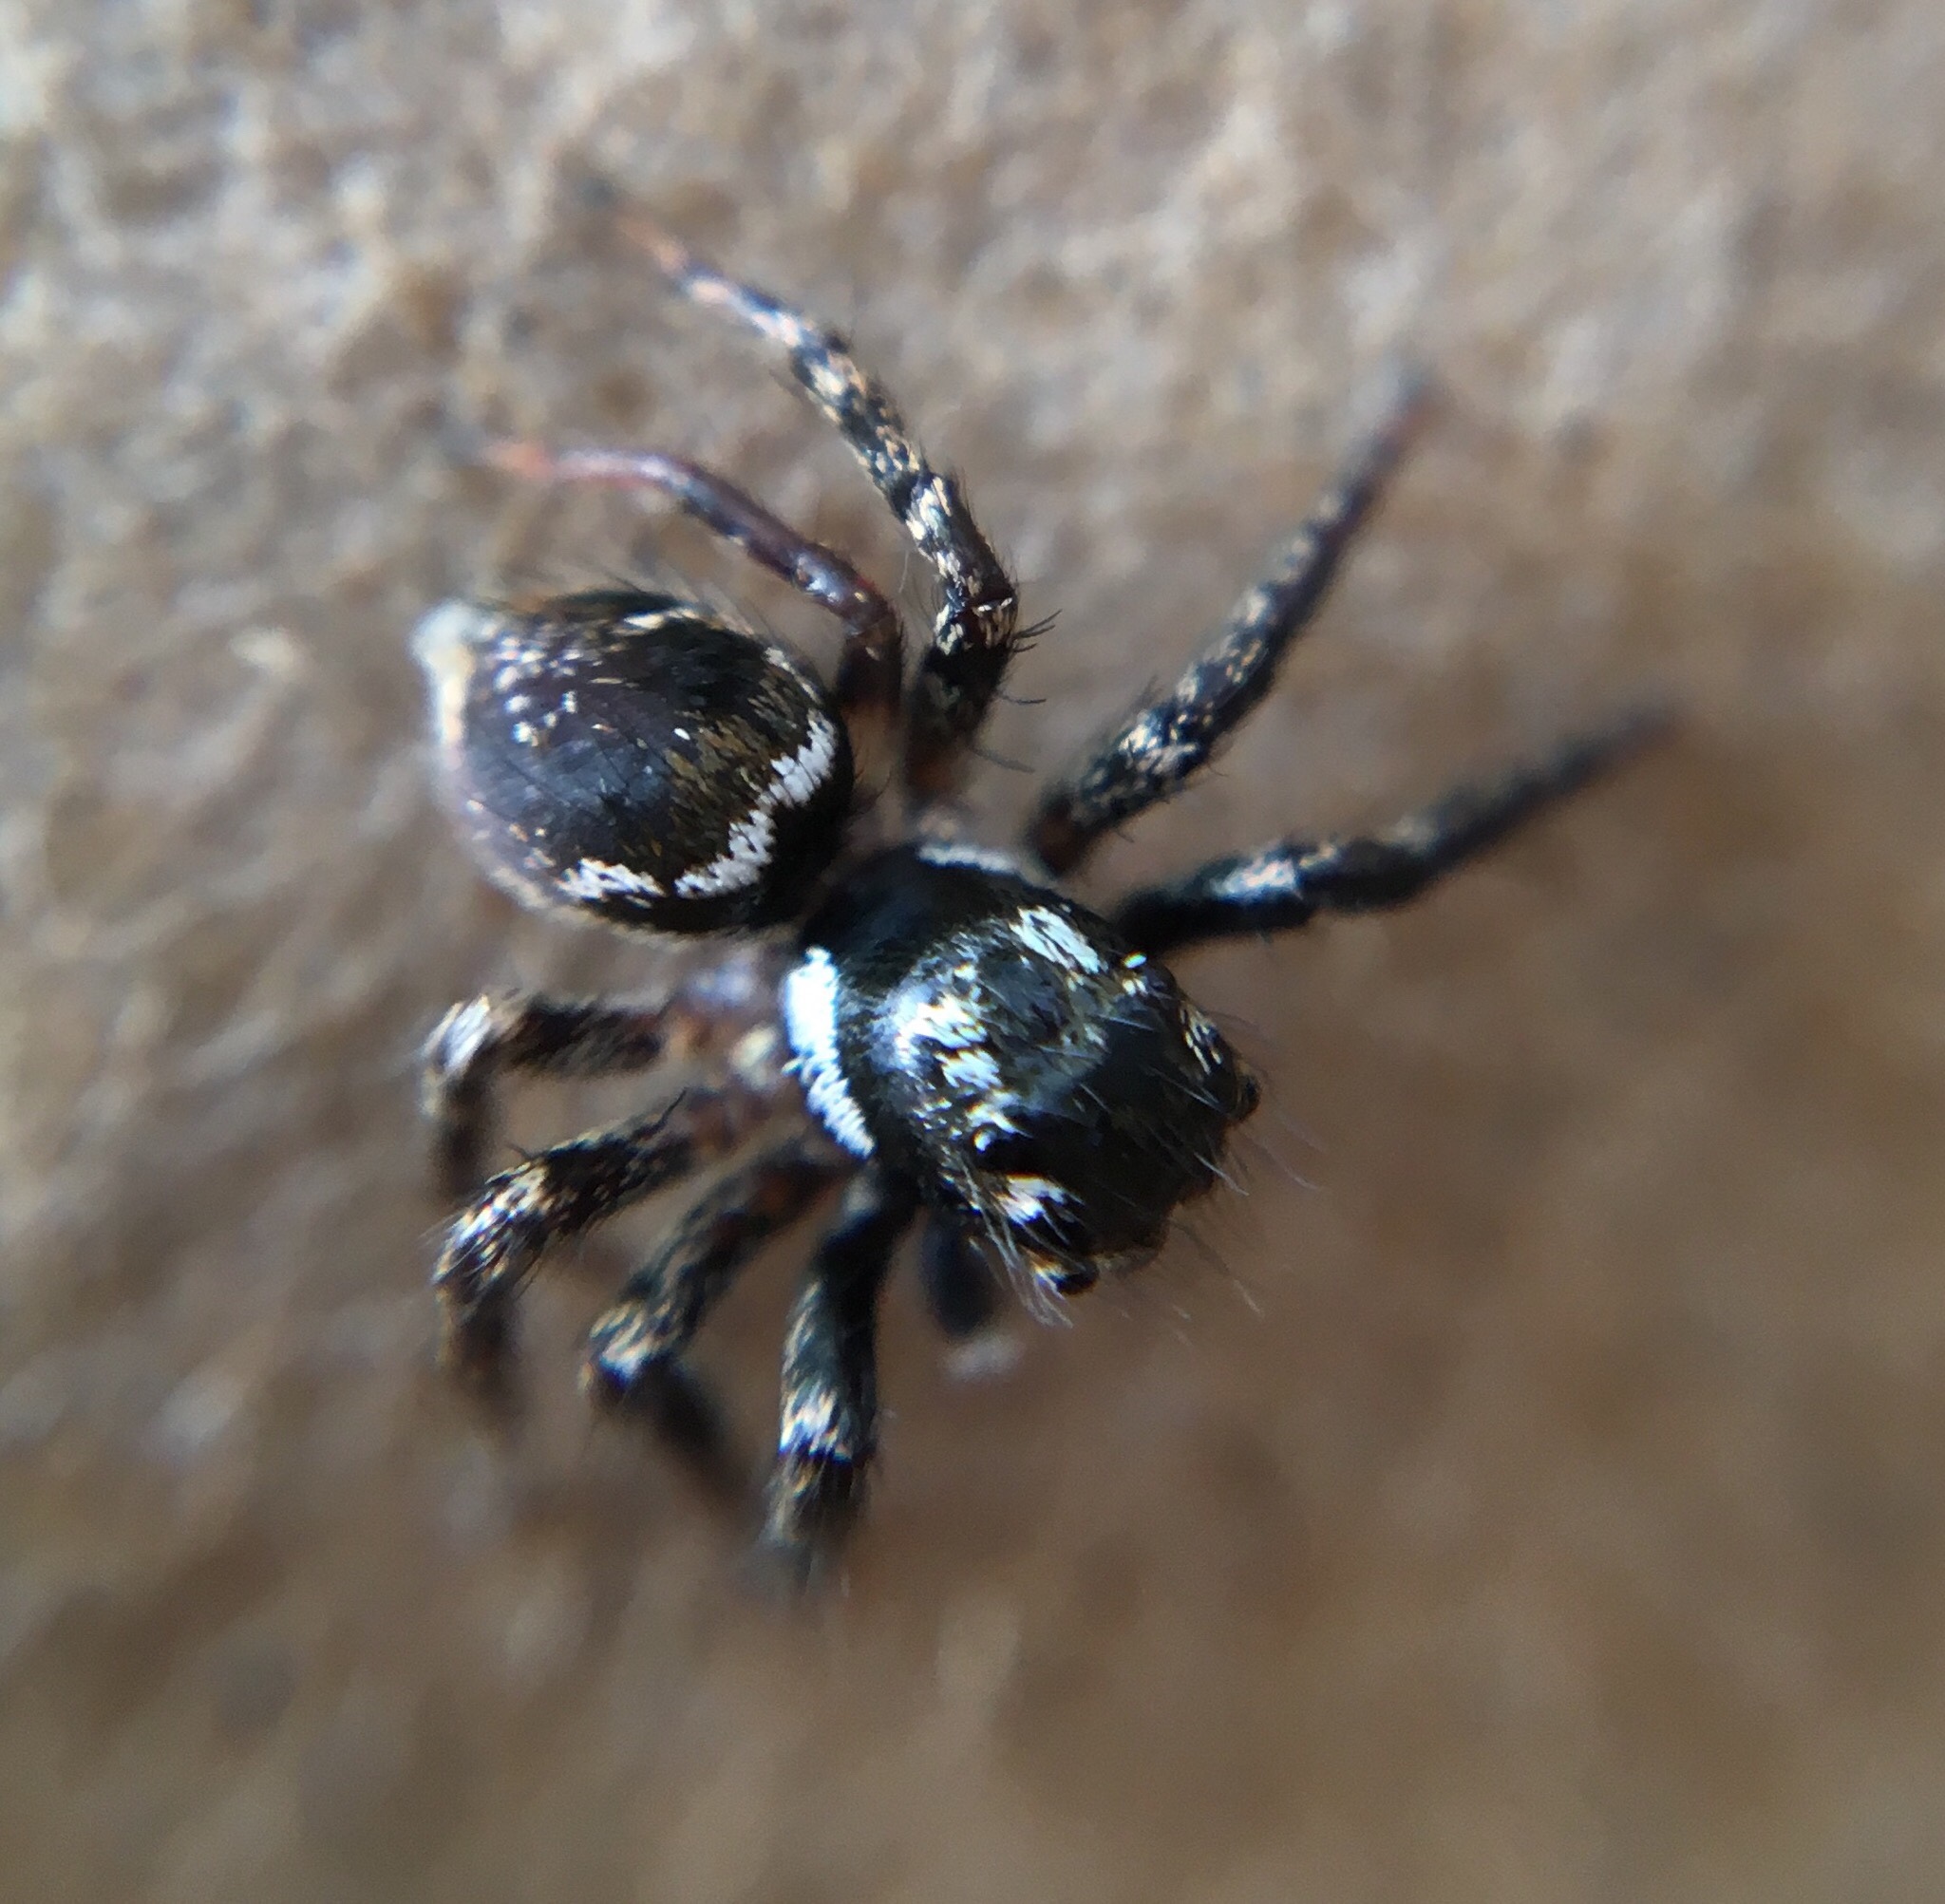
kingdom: Animalia
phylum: Arthropoda
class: Arachnida
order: Araneae
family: Salticidae
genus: Anasaitis
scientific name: Anasaitis canosa
